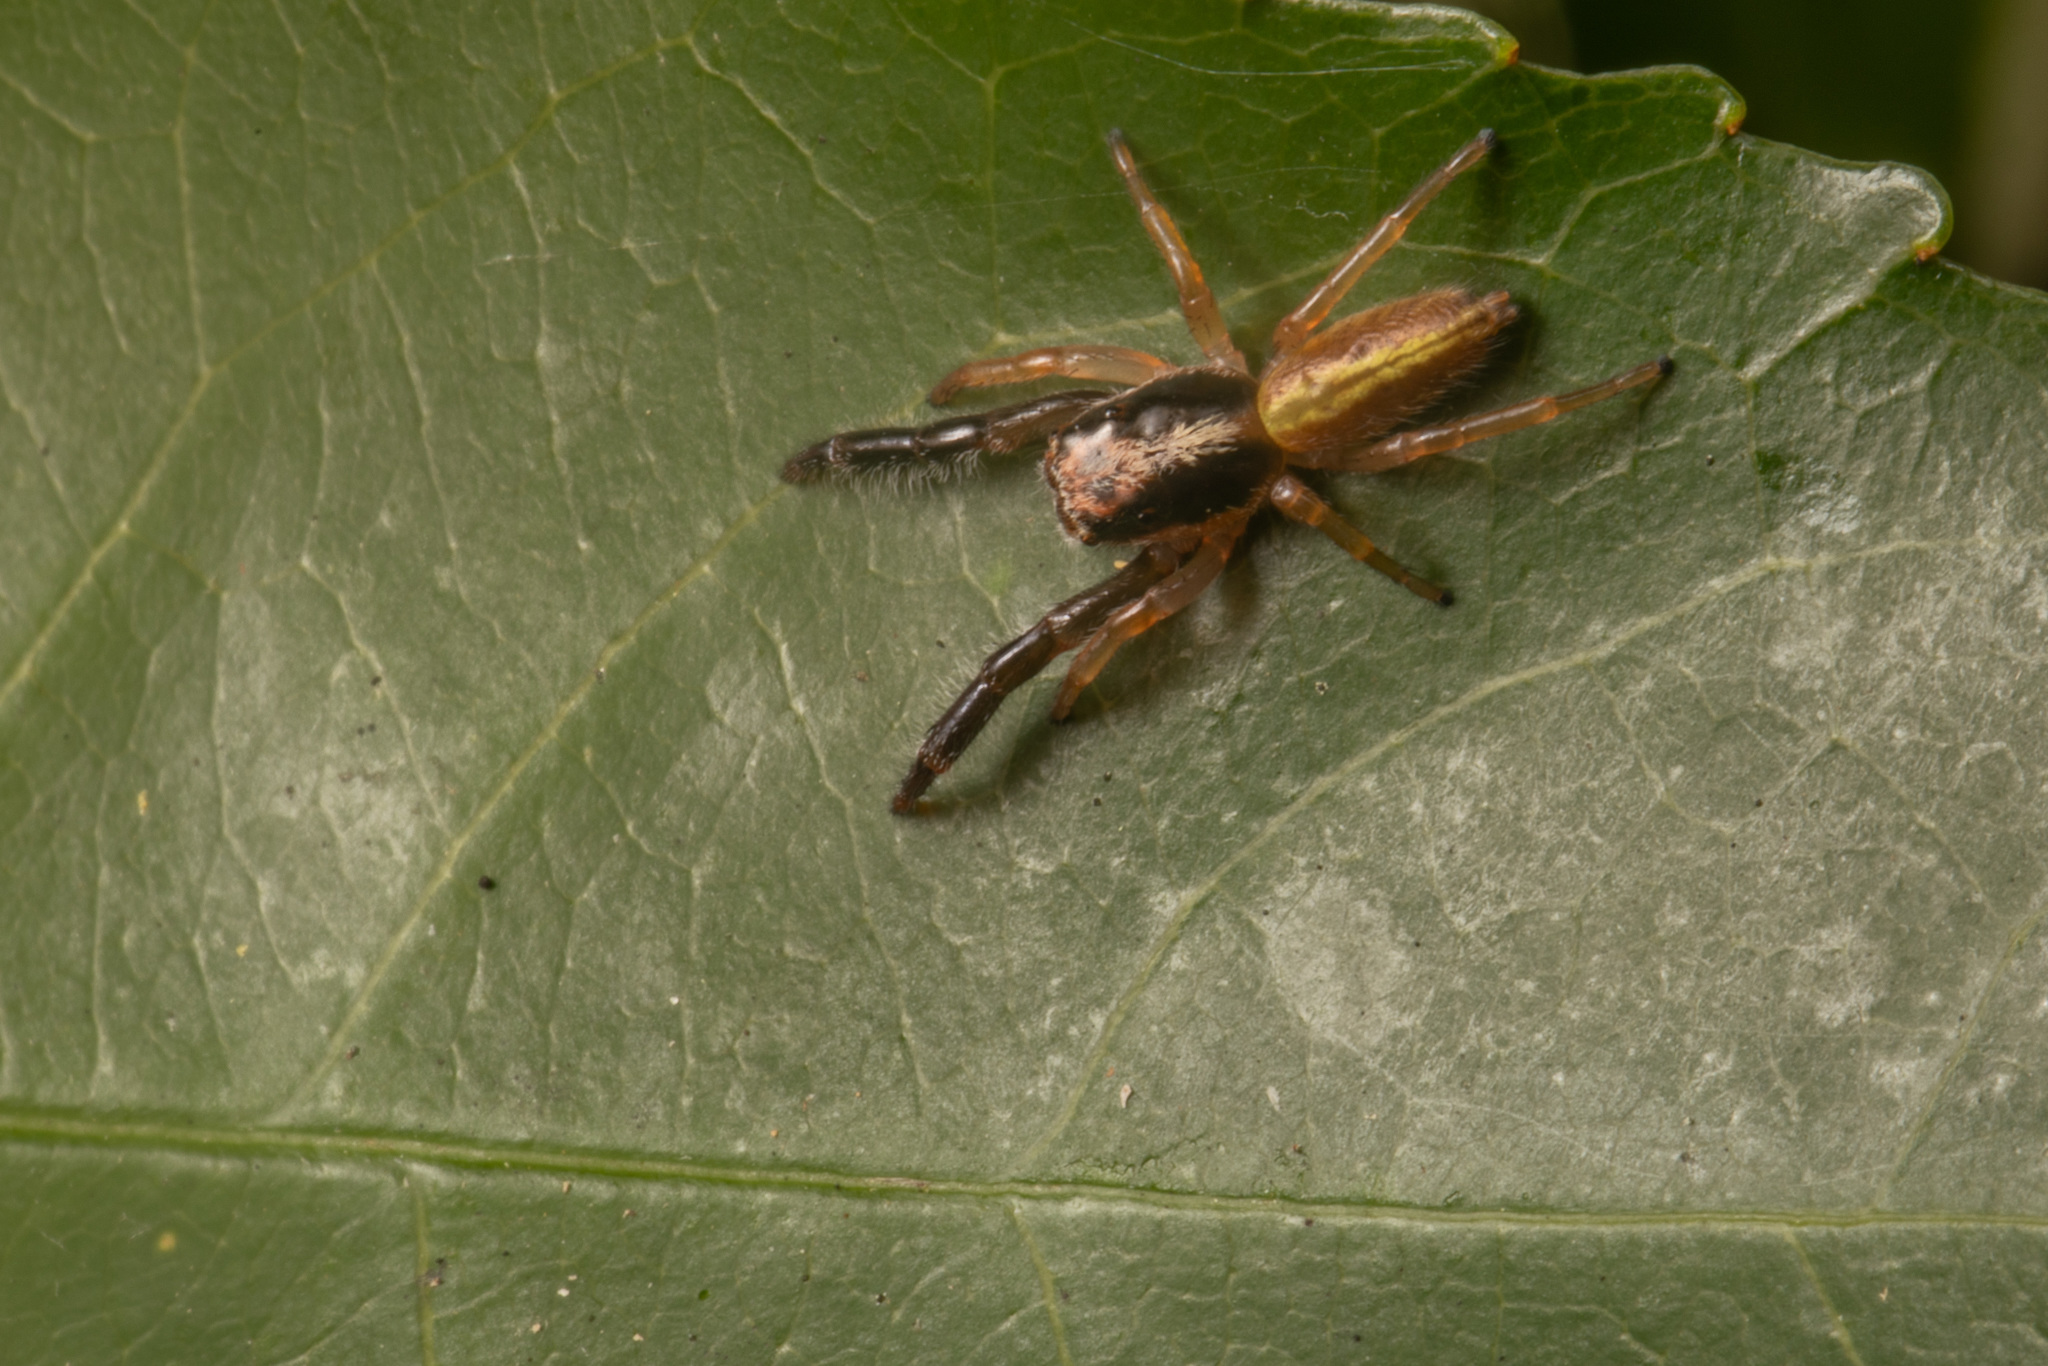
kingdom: Animalia
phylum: Arthropoda
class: Arachnida
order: Araneae
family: Salticidae
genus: Trite
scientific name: Trite planiceps
